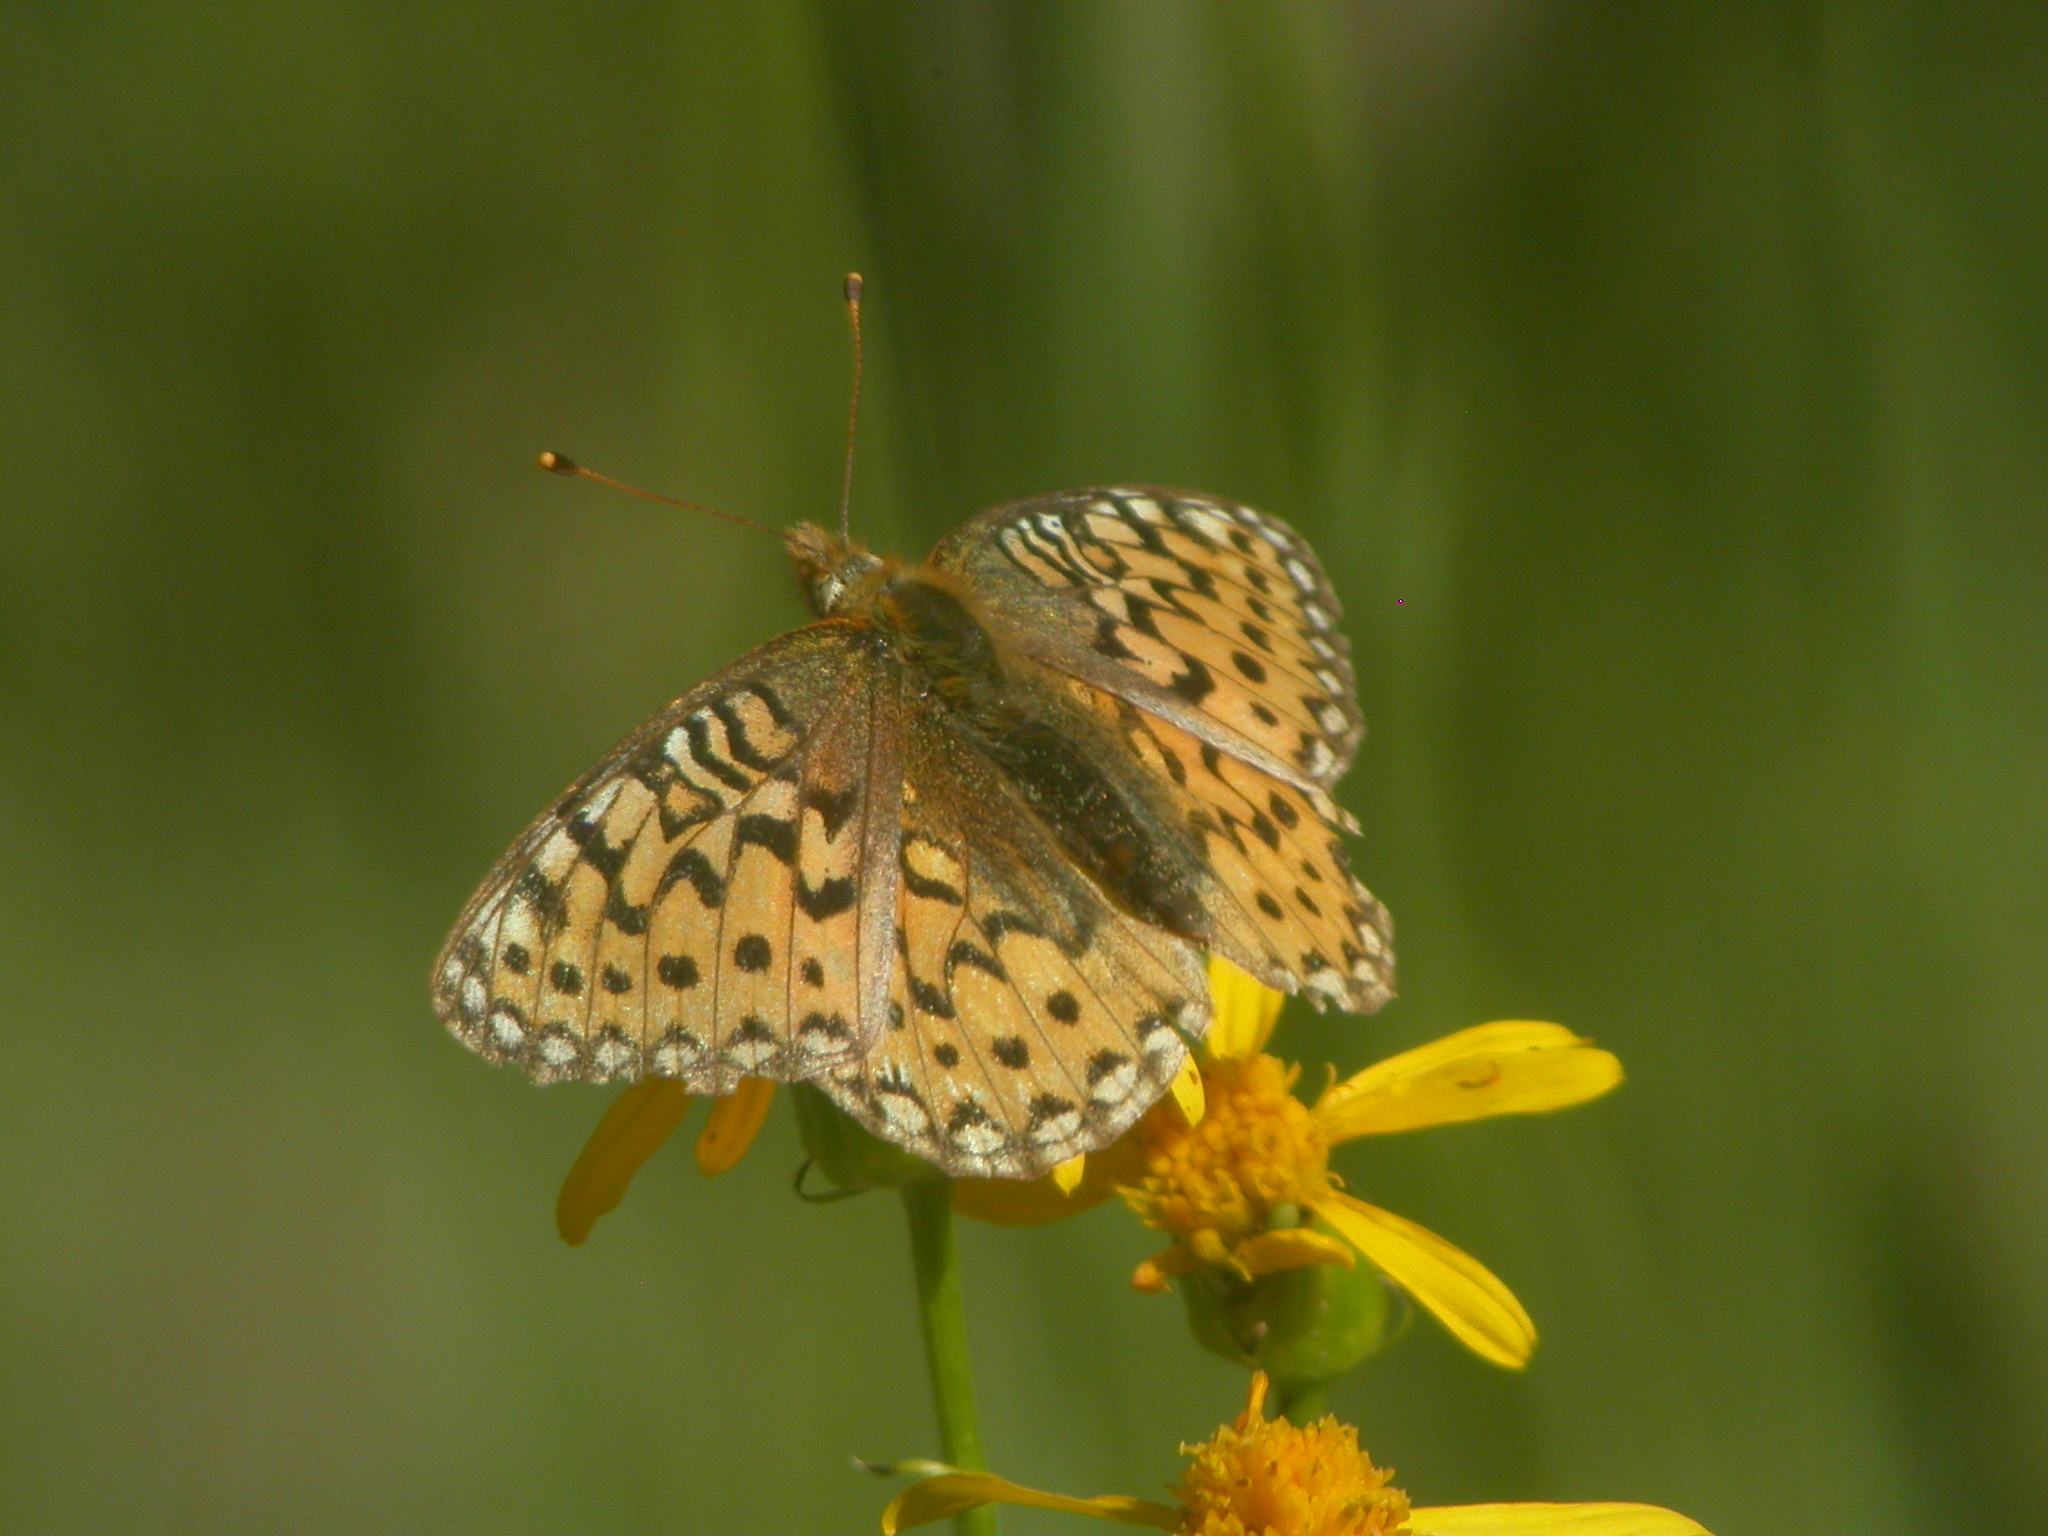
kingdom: Animalia
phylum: Arthropoda
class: Insecta
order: Lepidoptera
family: Nymphalidae
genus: Speyeria
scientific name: Speyeria mormonia
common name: Mormon fritillary
